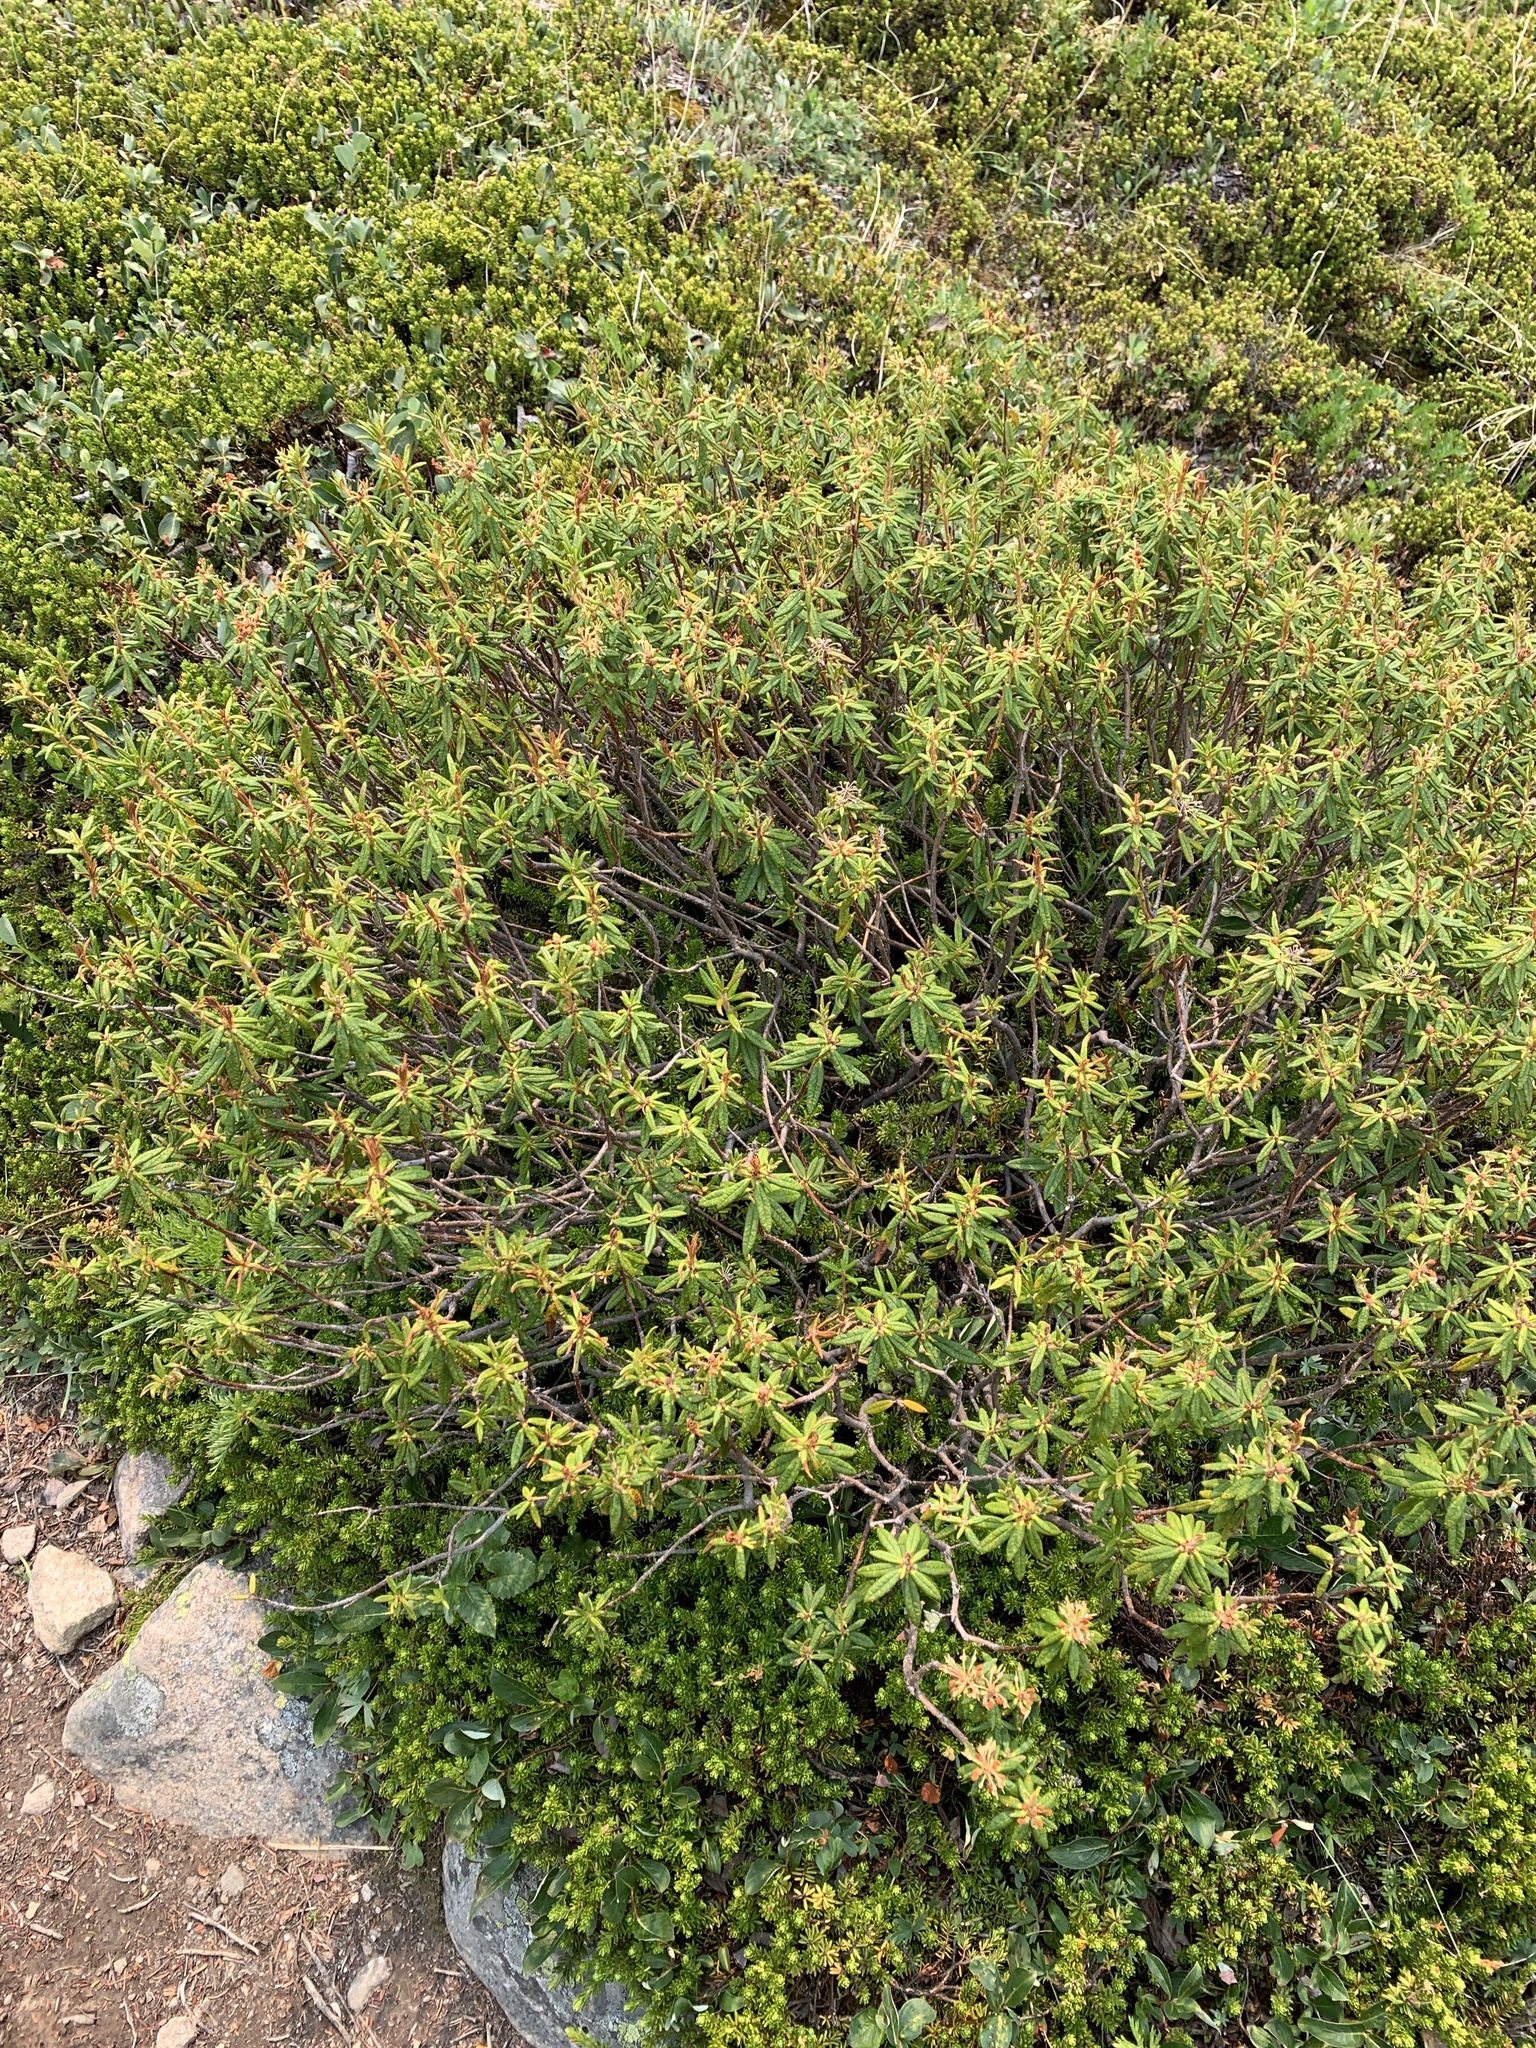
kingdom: Plantae
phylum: Tracheophyta
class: Magnoliopsida
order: Ericales
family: Ericaceae
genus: Rhododendron
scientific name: Rhododendron groenlandicum
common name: Bog labrador tea
